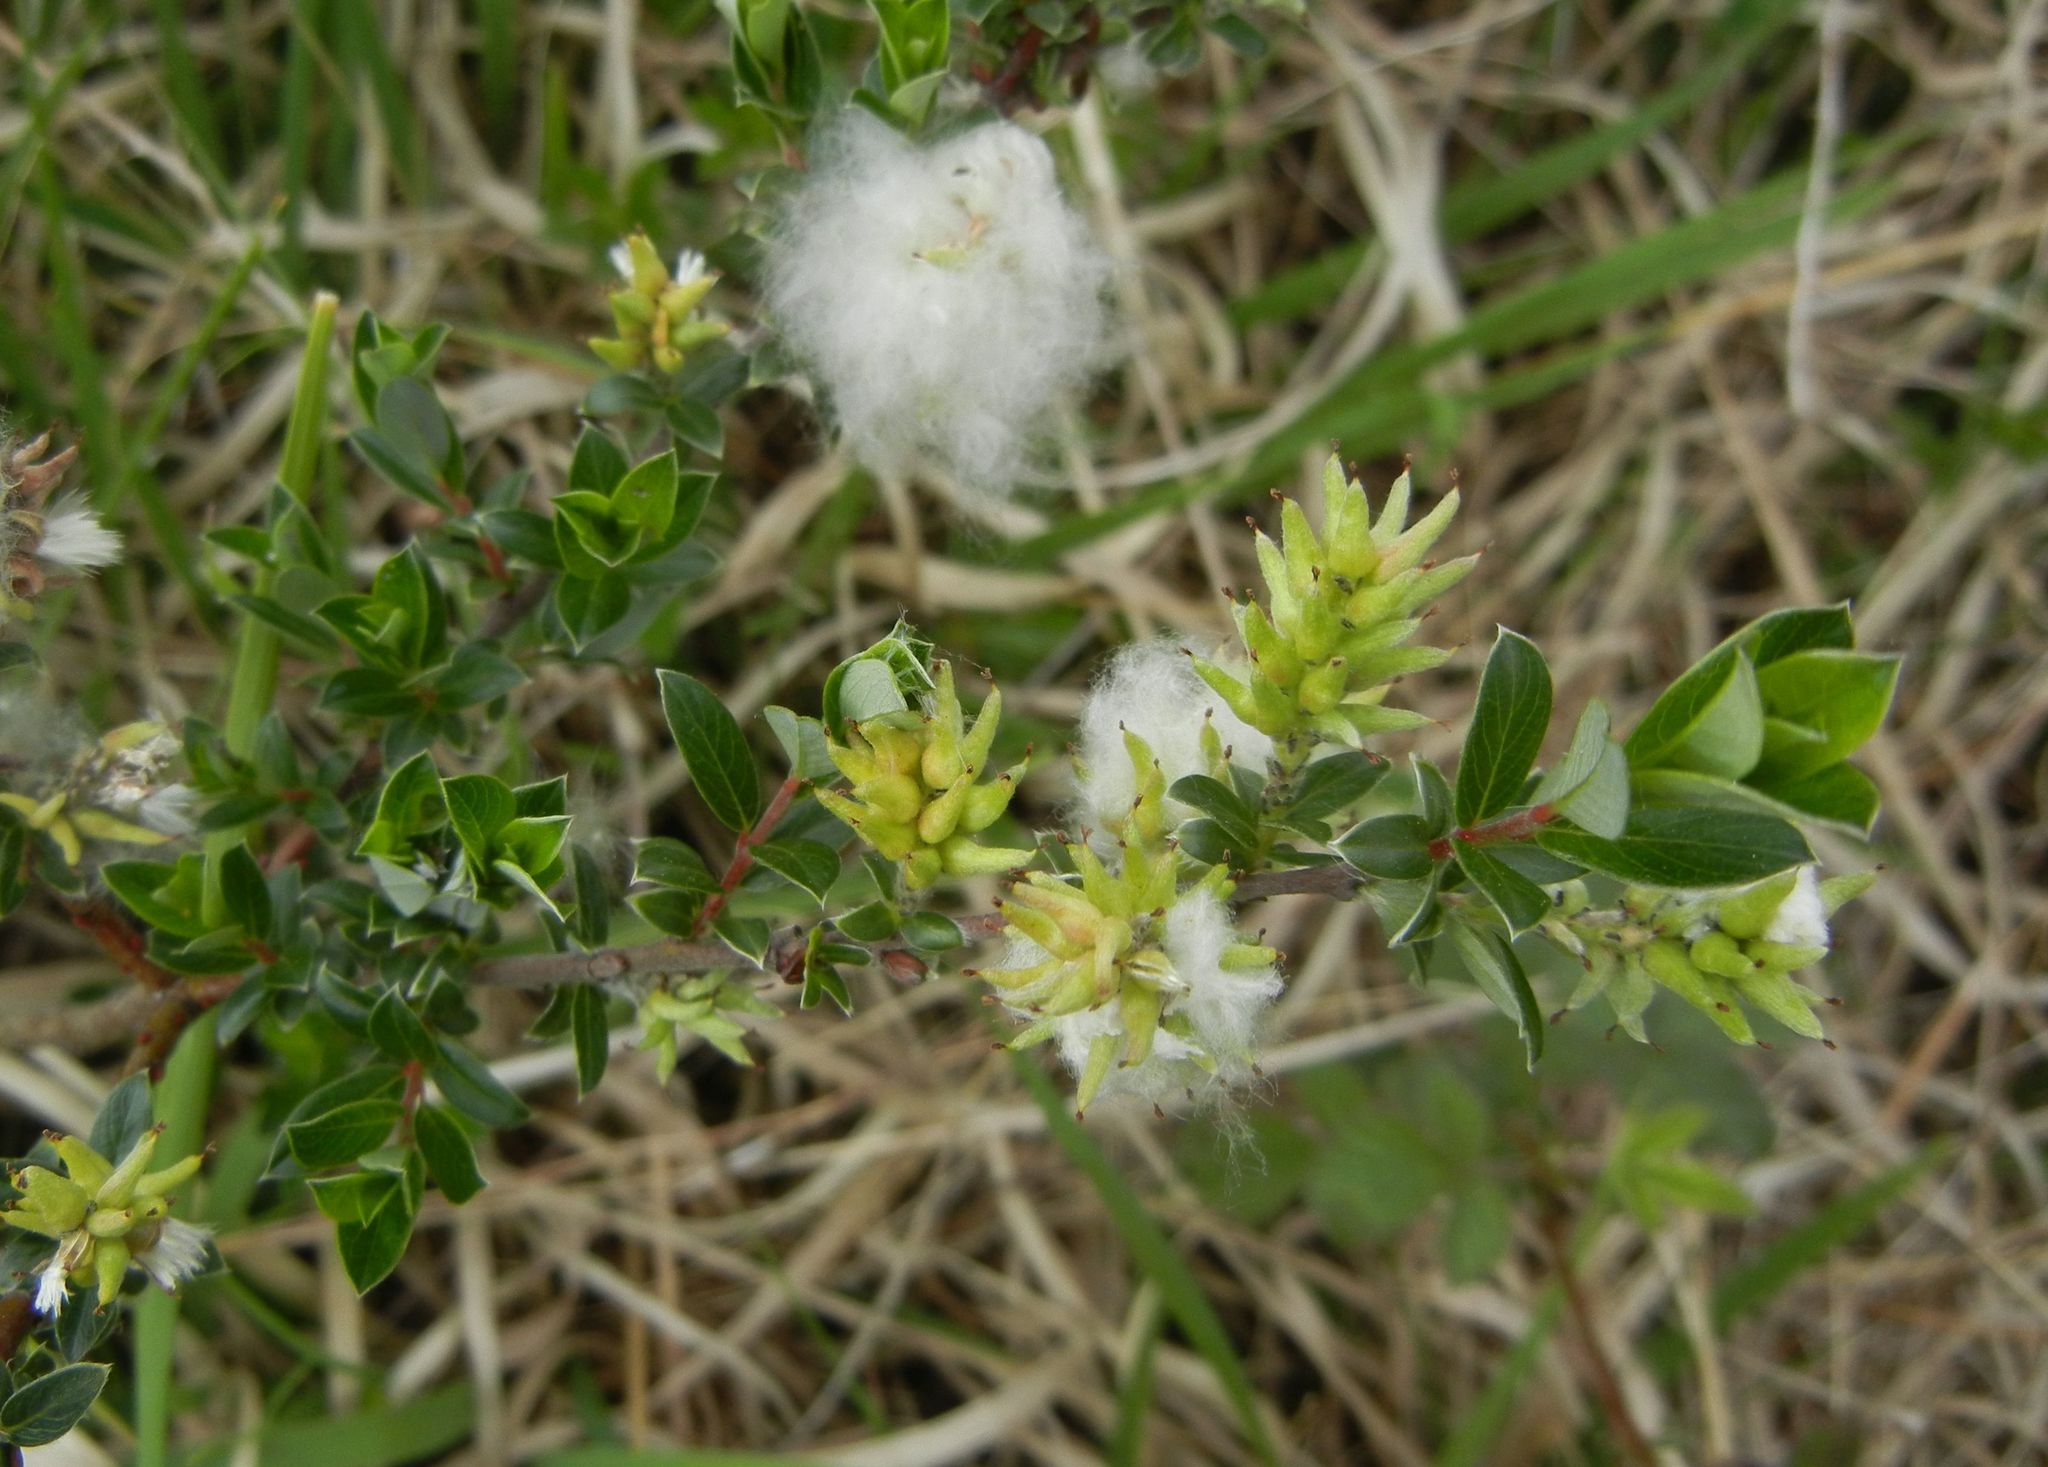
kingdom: Plantae
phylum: Tracheophyta
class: Magnoliopsida
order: Malpighiales
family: Salicaceae
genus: Salix
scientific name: Salix repens
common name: Creeping willow
